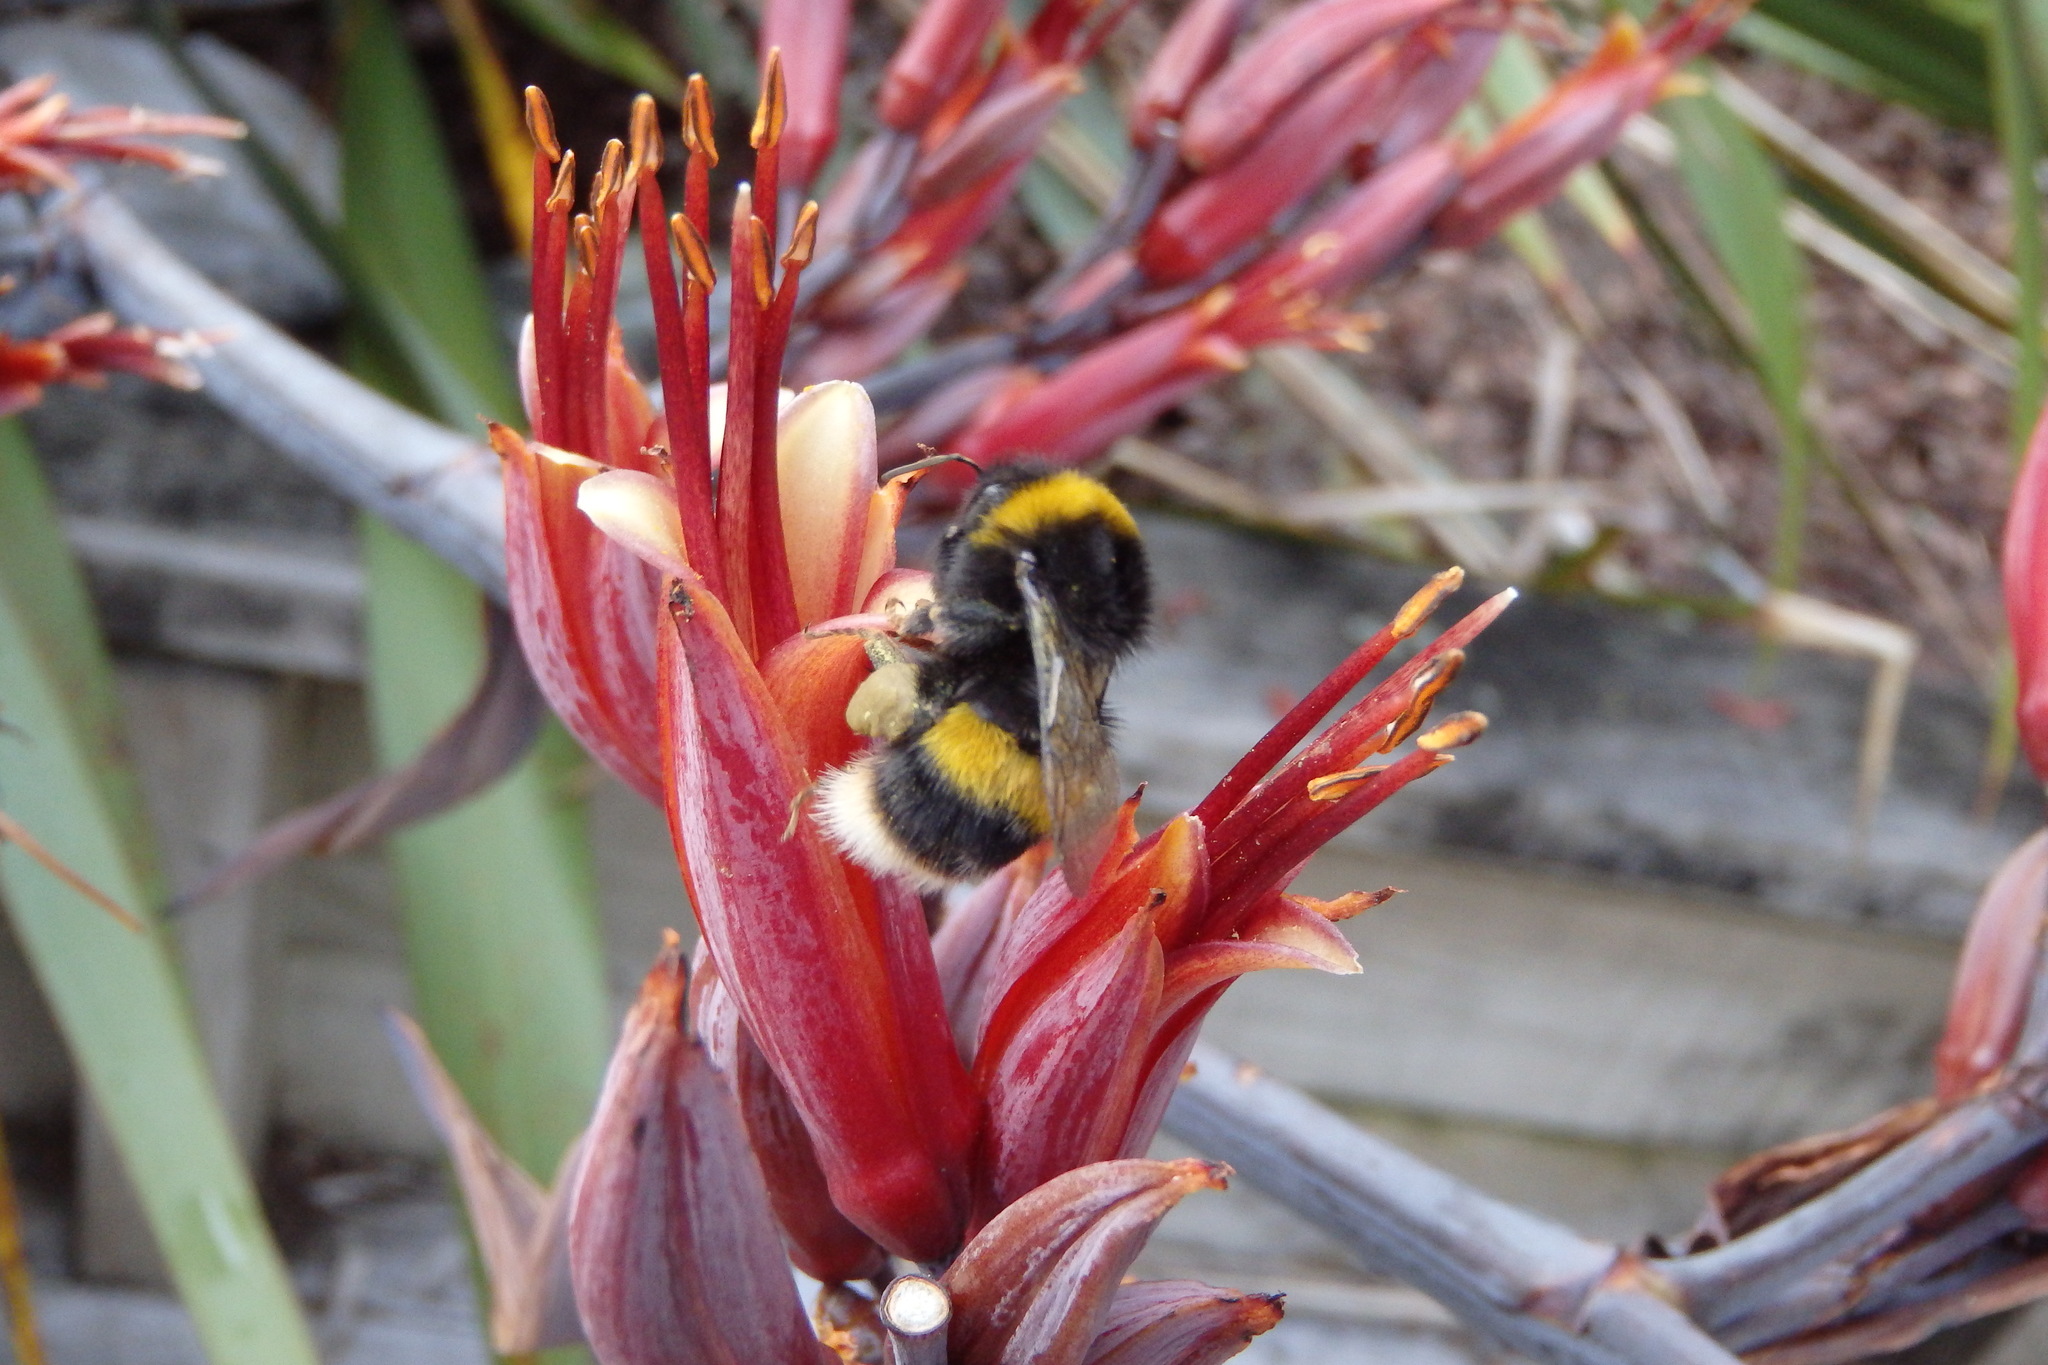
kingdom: Animalia
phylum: Arthropoda
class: Insecta
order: Hymenoptera
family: Apidae
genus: Bombus
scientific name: Bombus terrestris
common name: Buff-tailed bumblebee
